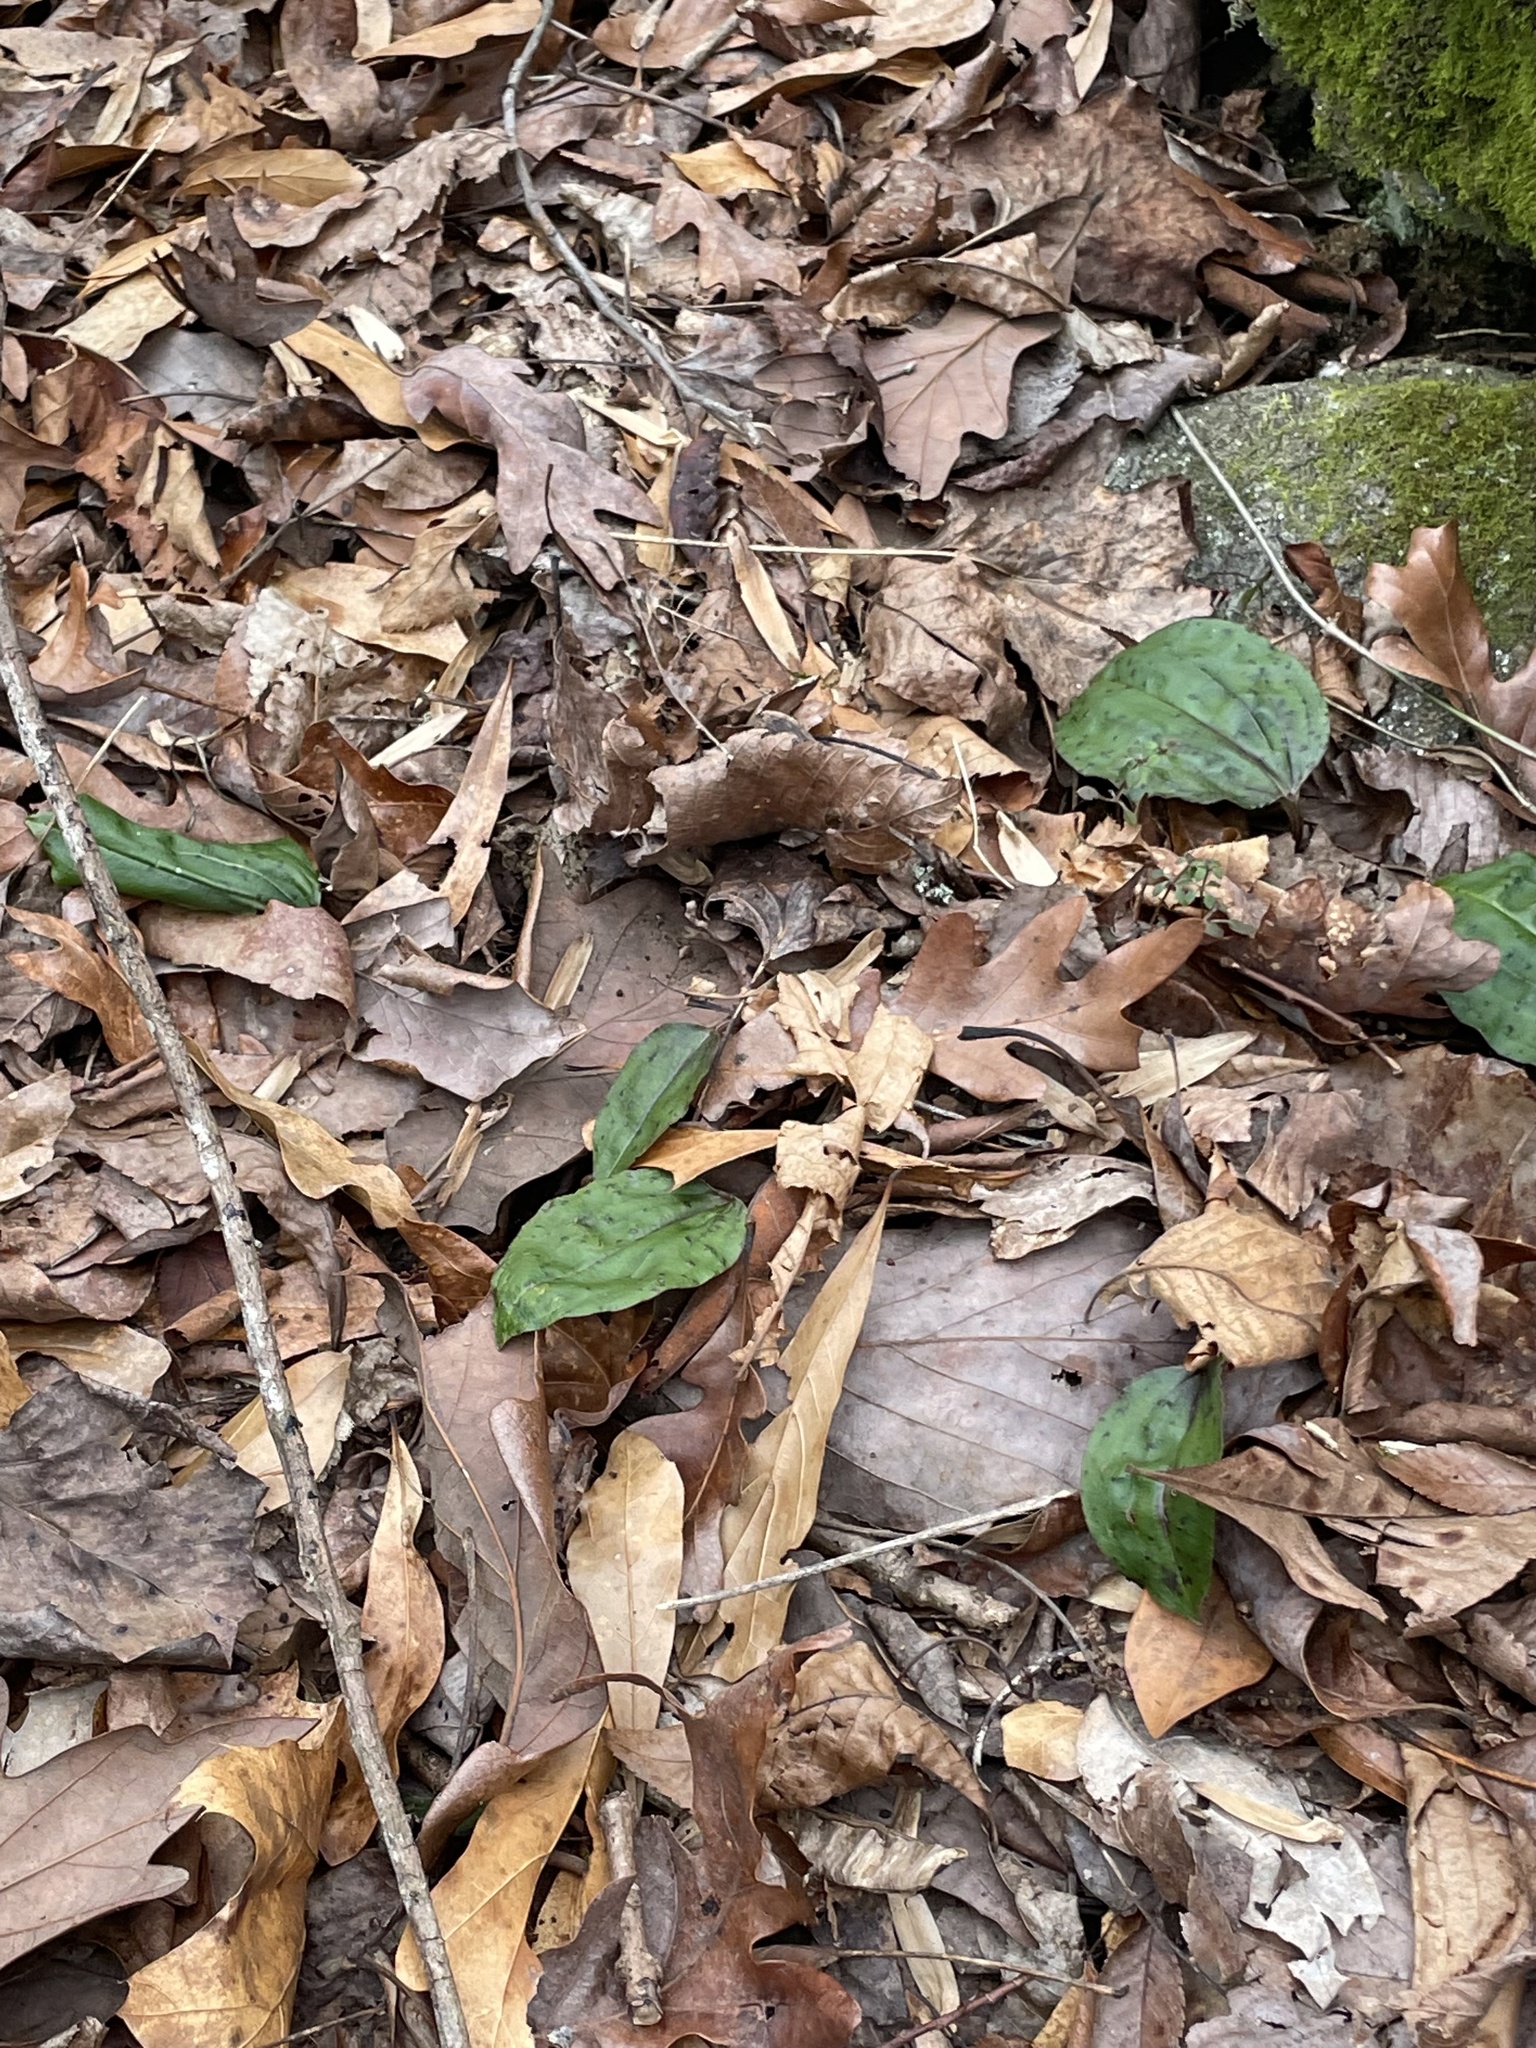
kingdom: Plantae
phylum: Tracheophyta
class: Liliopsida
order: Asparagales
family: Orchidaceae
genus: Tipularia
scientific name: Tipularia discolor
